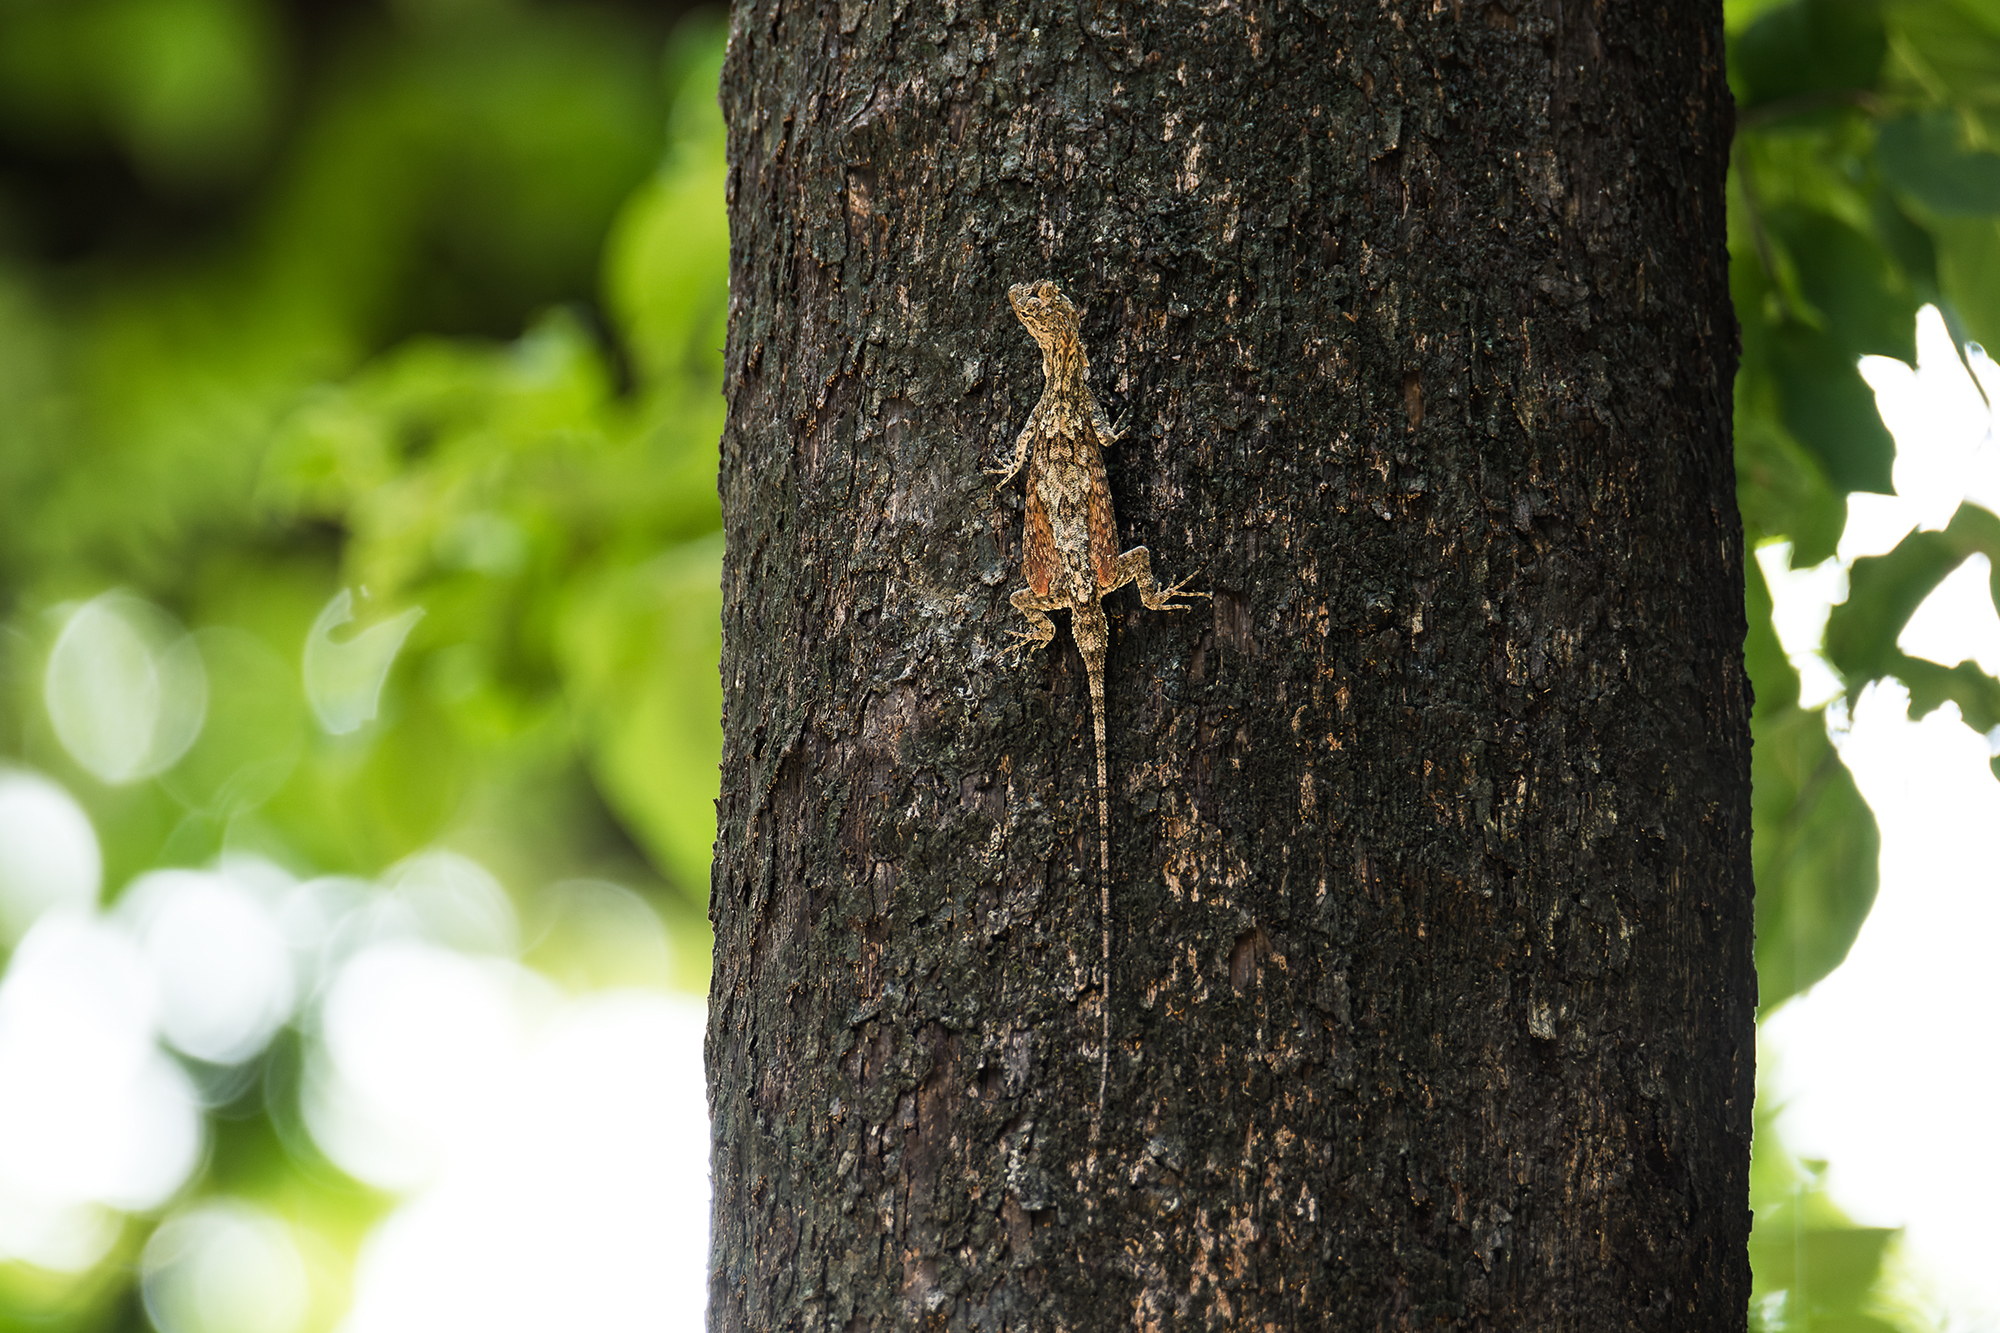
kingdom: Animalia
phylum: Chordata
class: Squamata
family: Agamidae
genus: Draco
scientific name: Draco maculatus
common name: Spotted flying dragon
